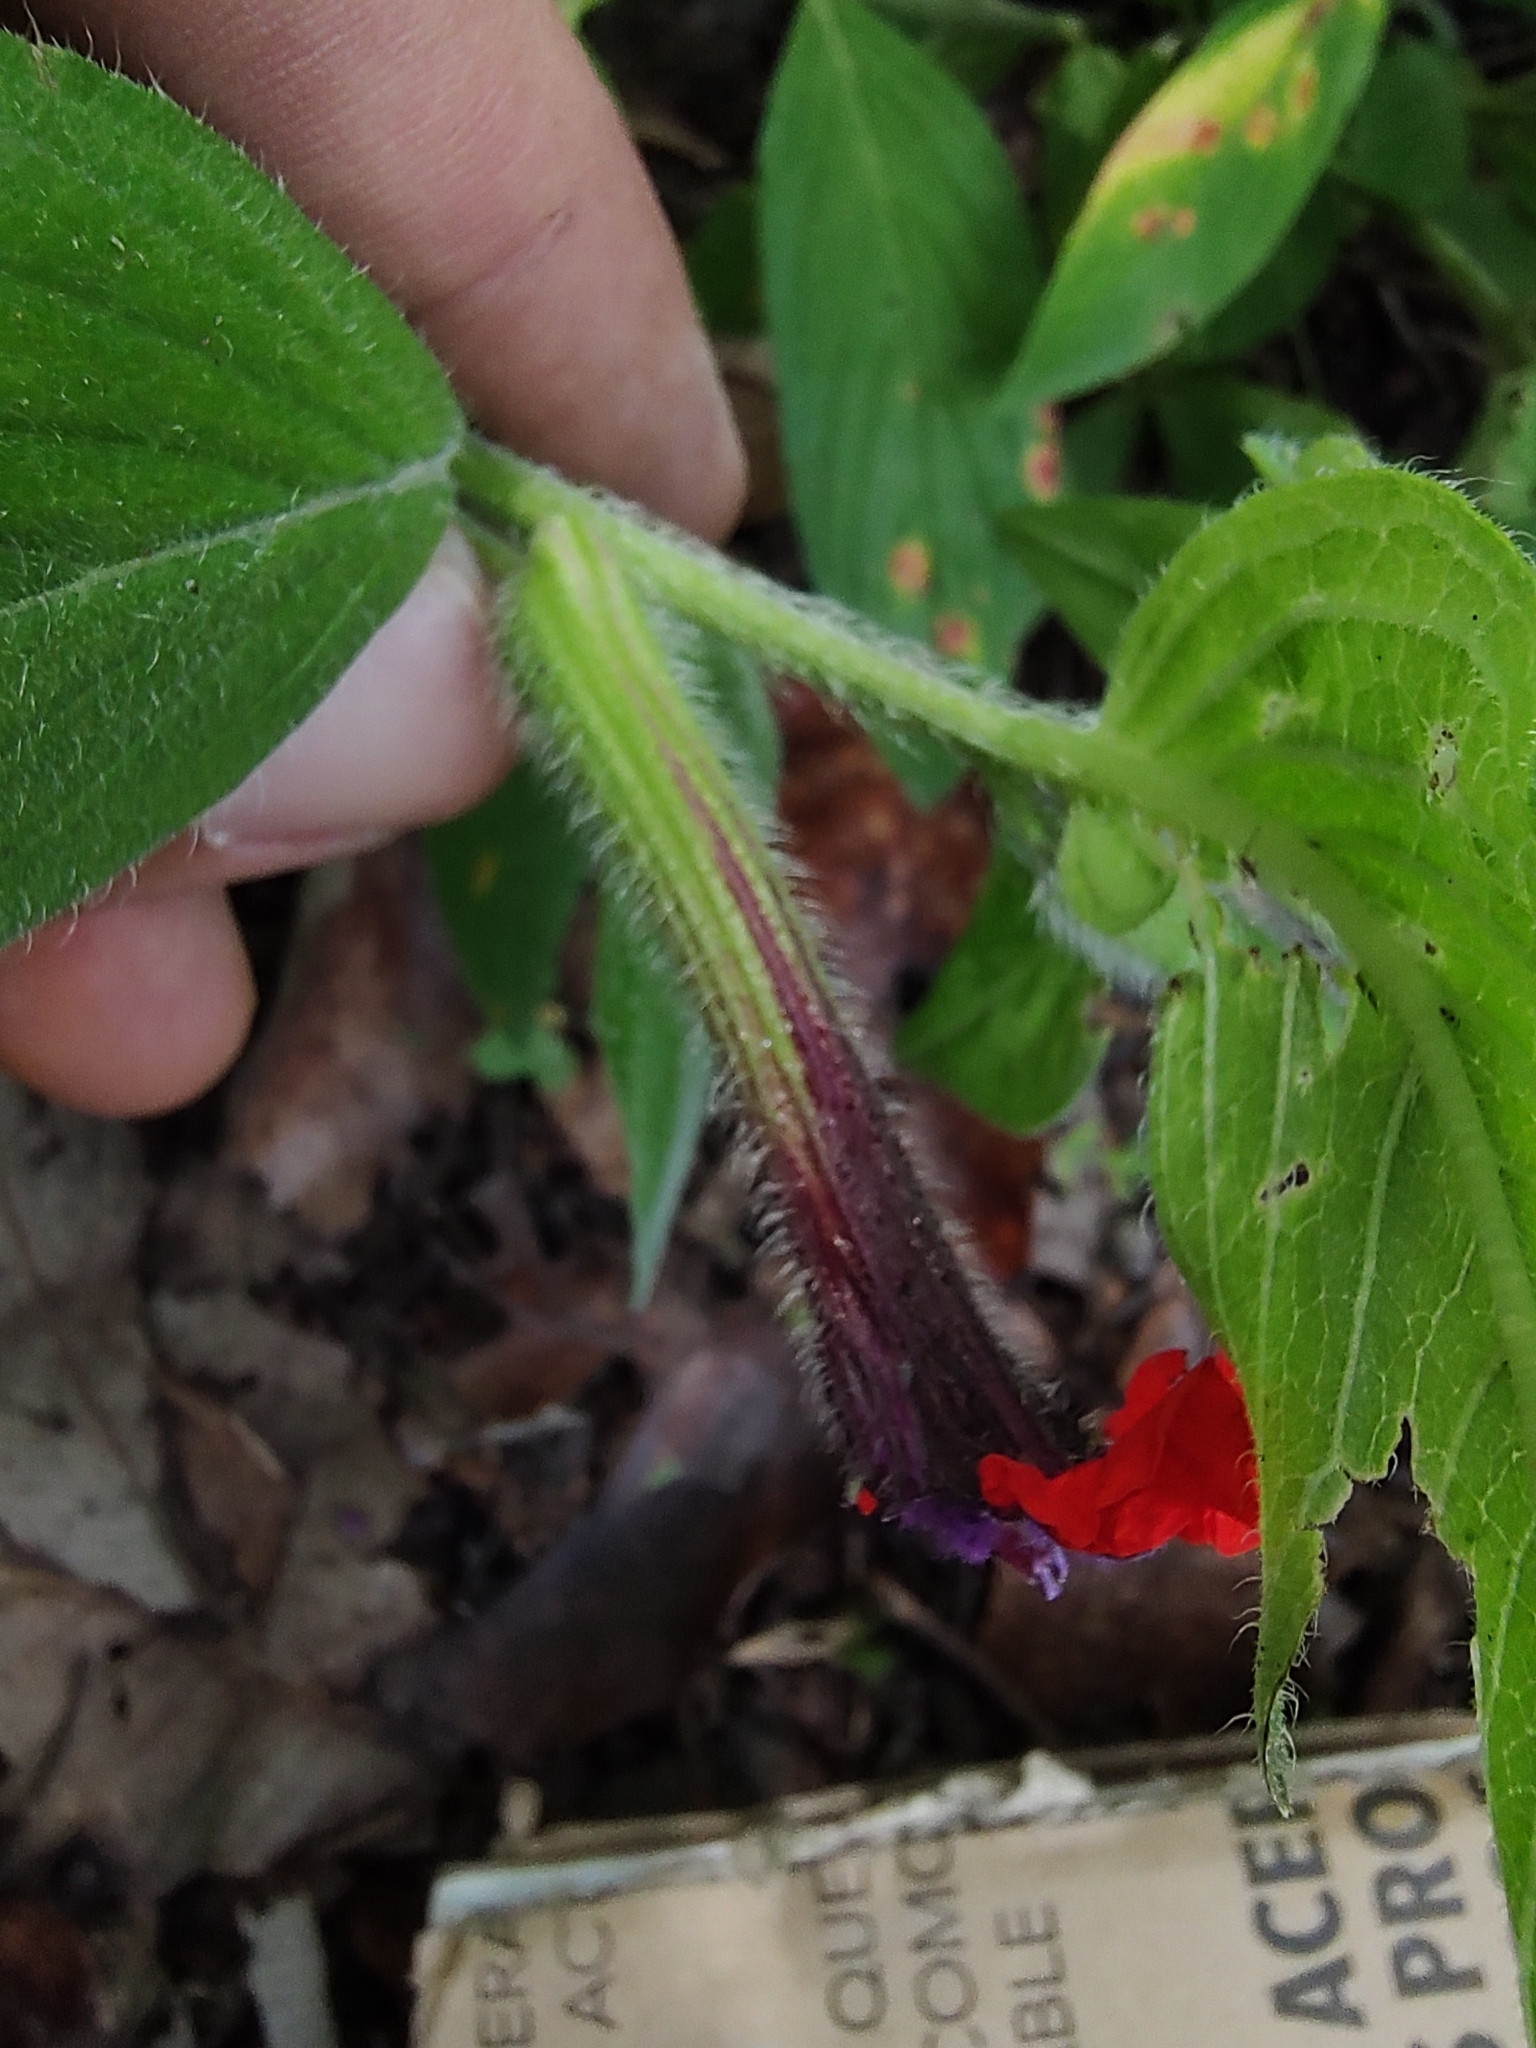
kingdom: Plantae
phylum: Tracheophyta
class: Magnoliopsida
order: Myrtales
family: Lythraceae
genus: Cuphea
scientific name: Cuphea llavea
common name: Tiny-mice
